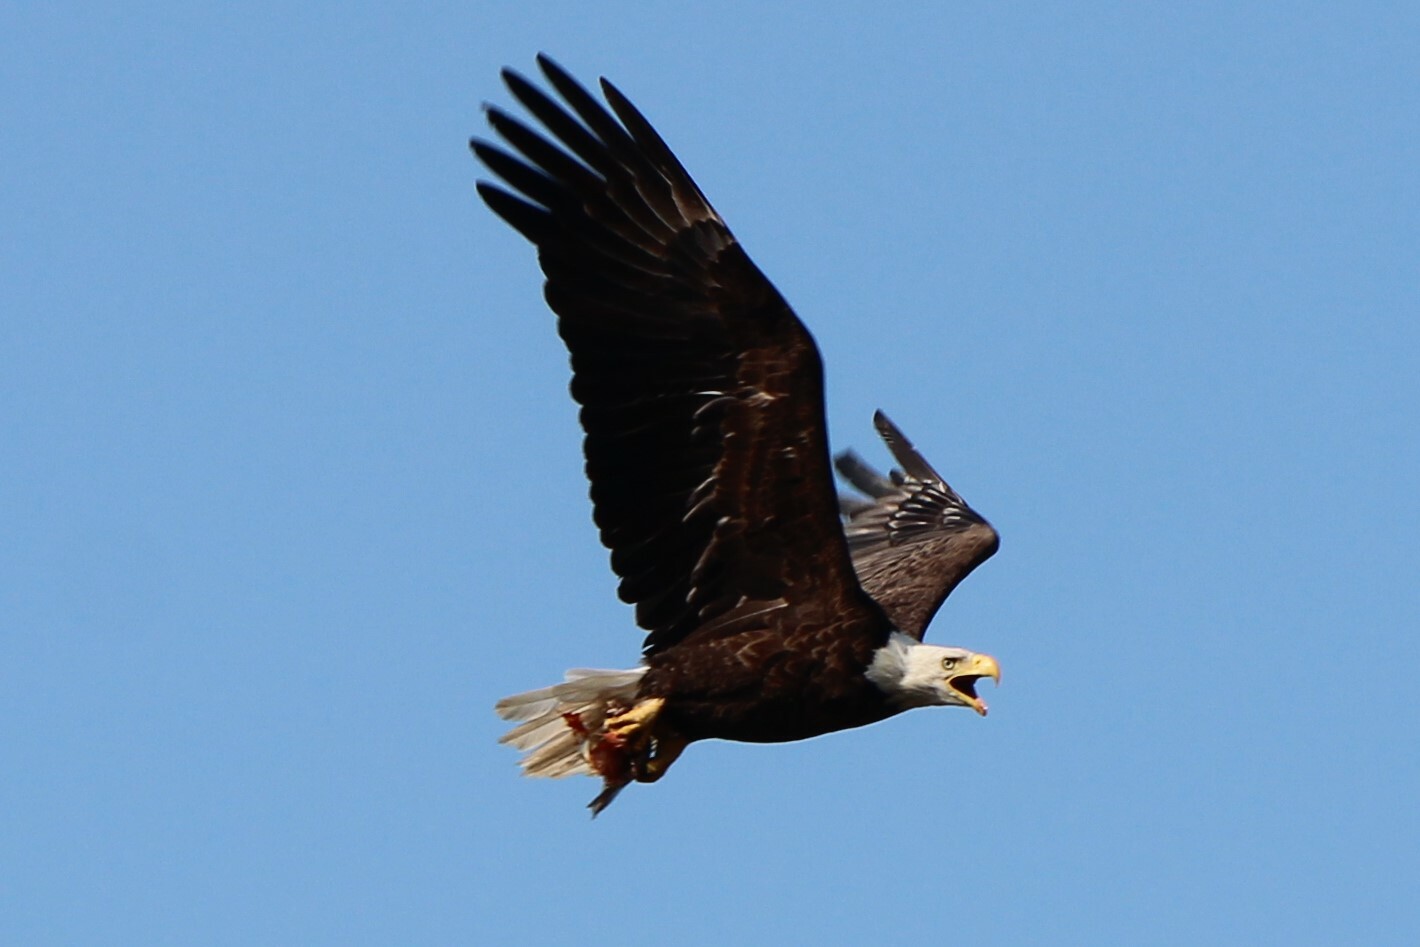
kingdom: Animalia
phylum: Chordata
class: Aves
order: Accipitriformes
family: Accipitridae
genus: Haliaeetus
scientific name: Haliaeetus leucocephalus
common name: Bald eagle
